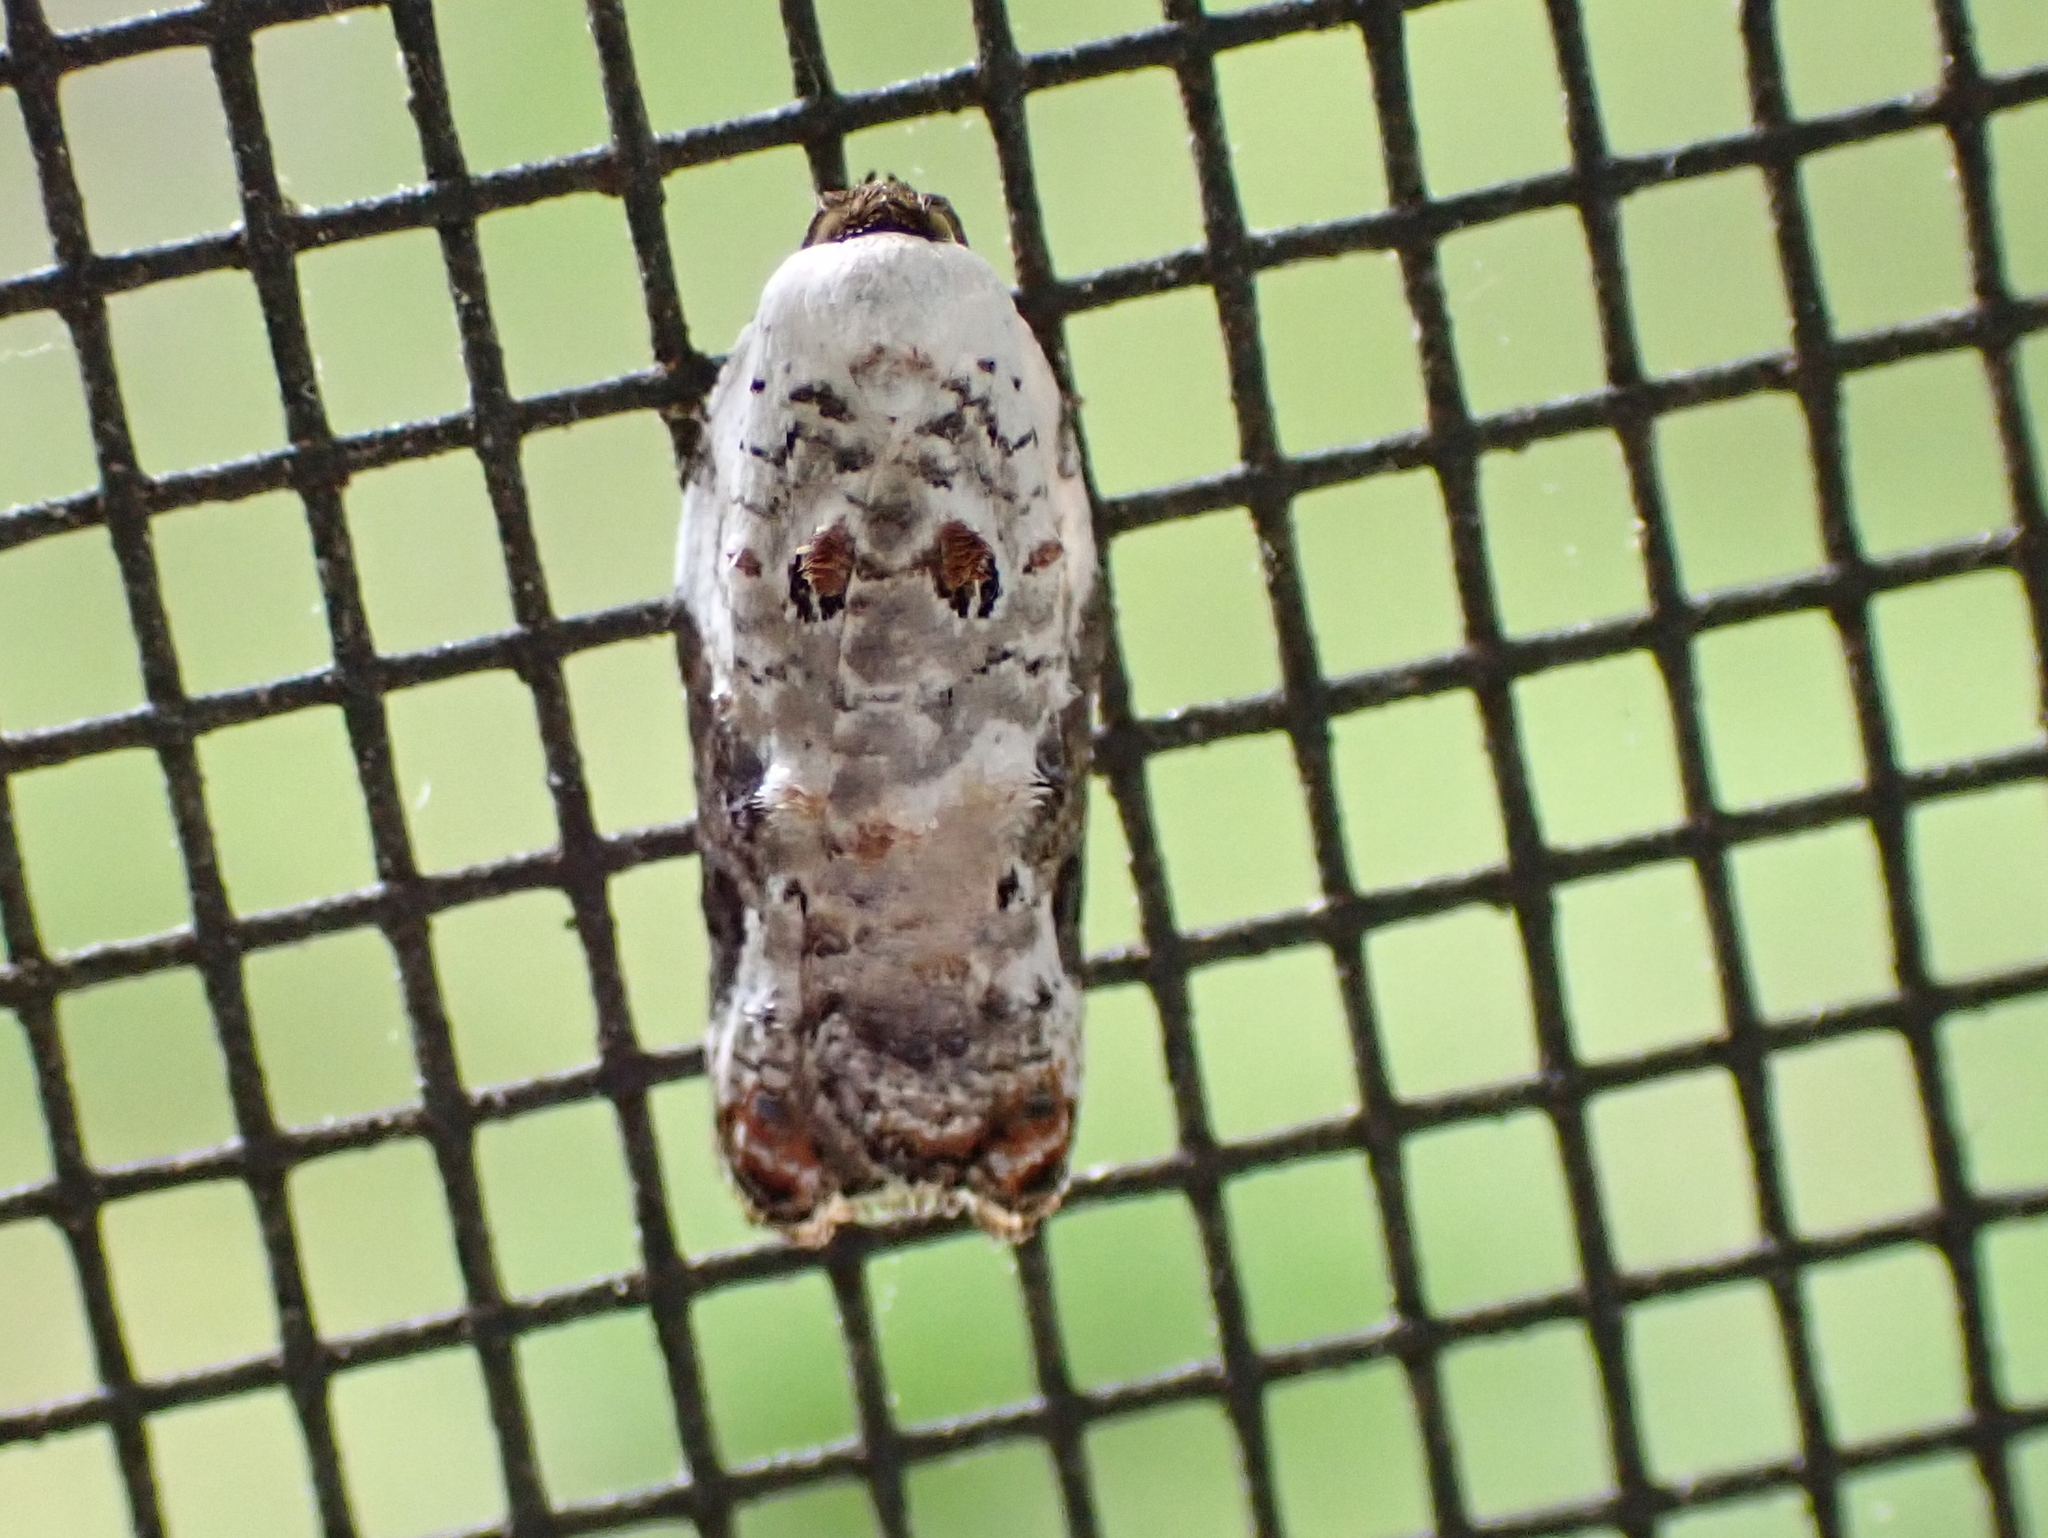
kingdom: Animalia
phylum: Arthropoda
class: Insecta
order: Lepidoptera
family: Tortricidae
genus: Acleris
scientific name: Acleris nivisellana
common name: Snowy-shouldered acleris moth
